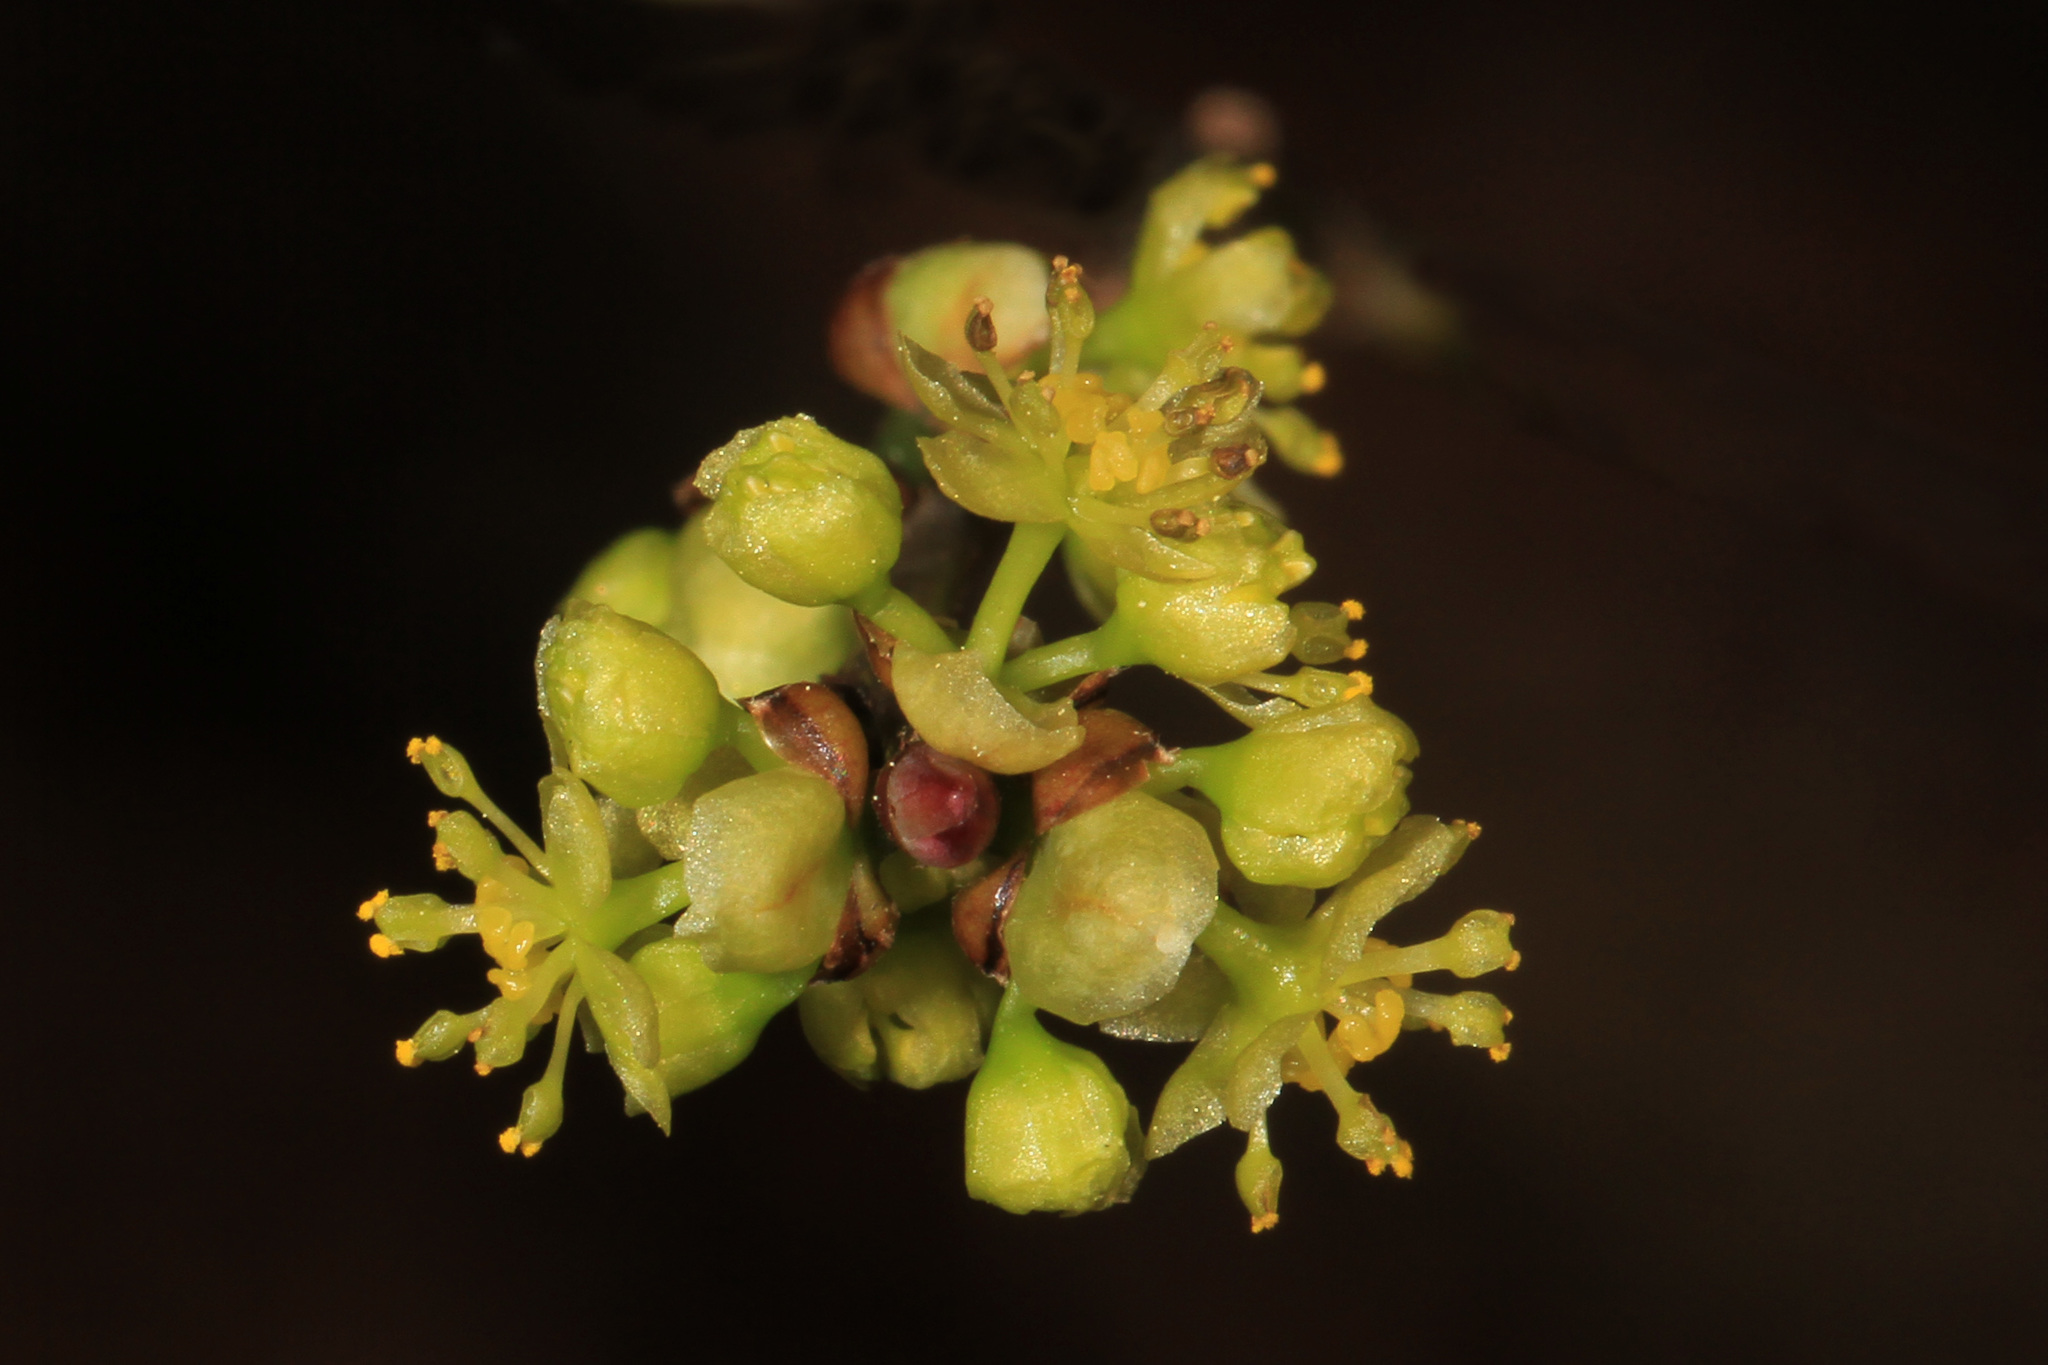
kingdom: Plantae
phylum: Tracheophyta
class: Magnoliopsida
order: Laurales
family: Lauraceae
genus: Lindera
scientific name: Lindera benzoin
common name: Spicebush
